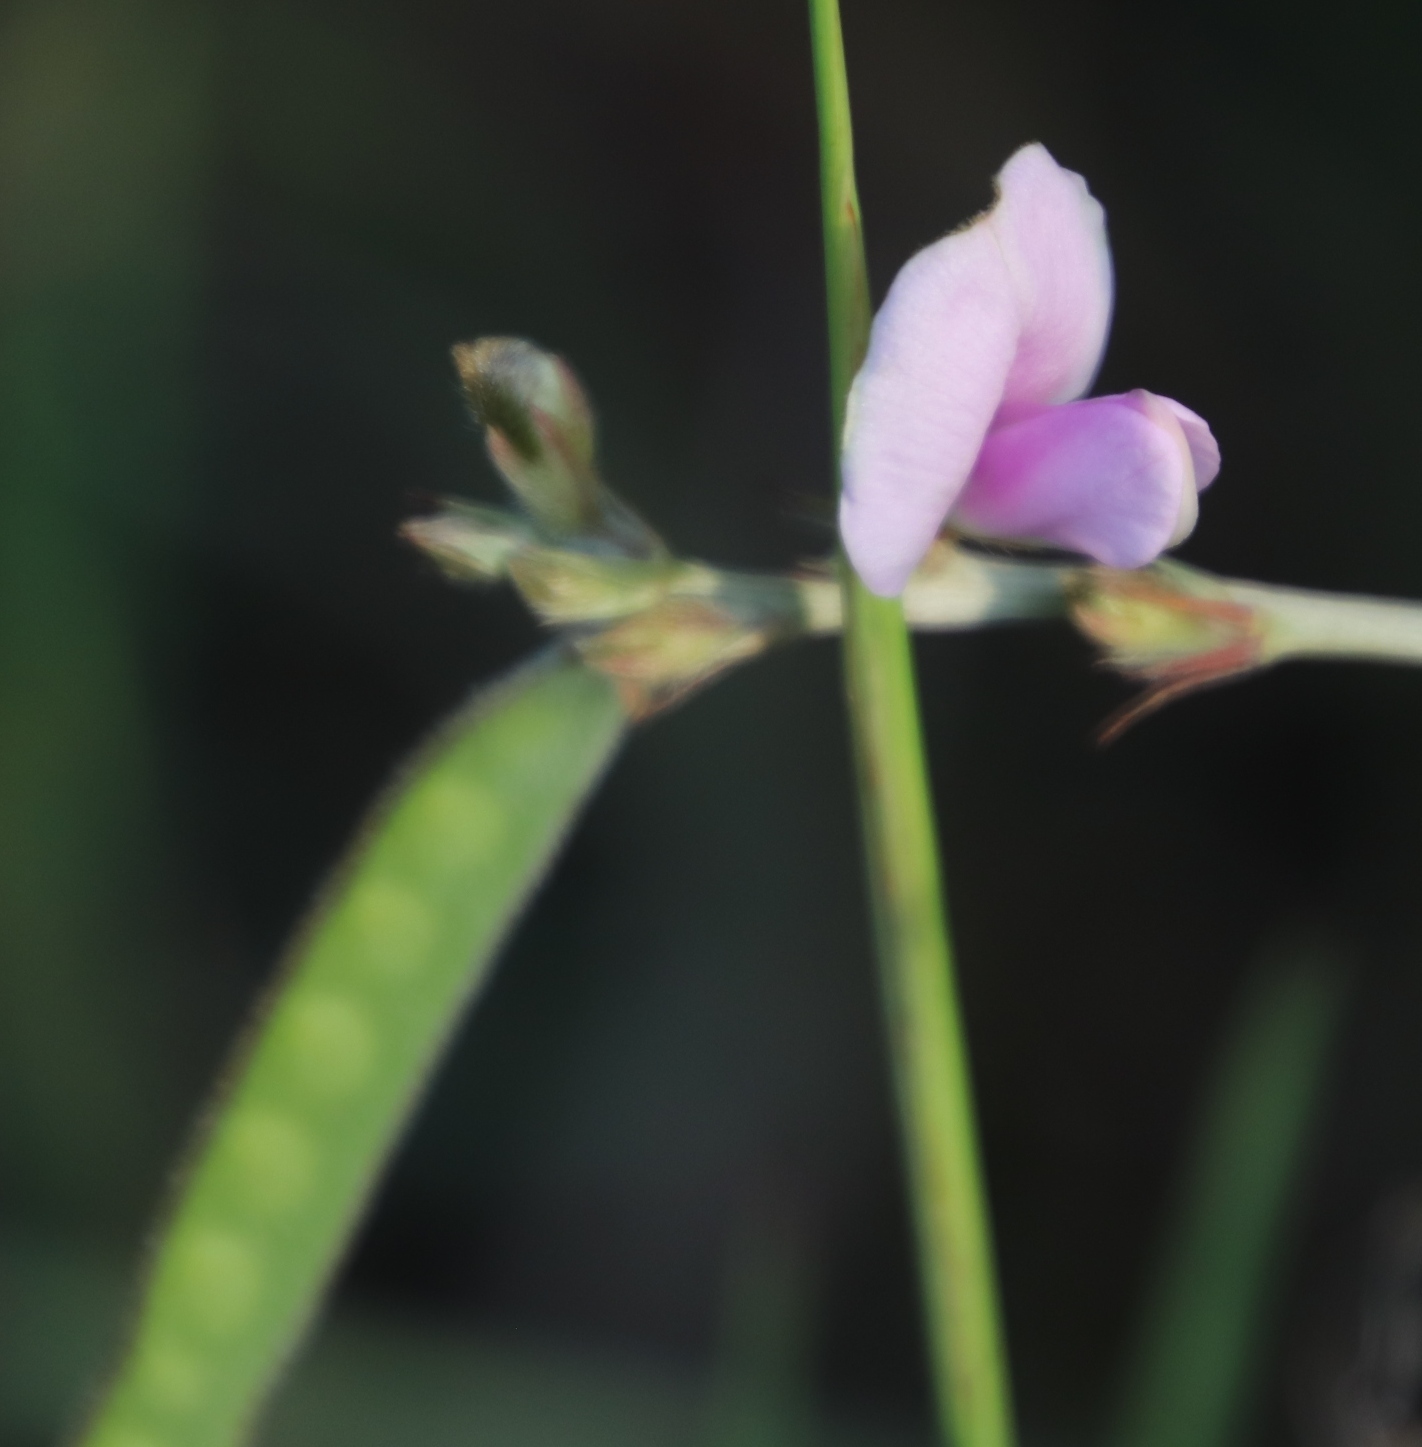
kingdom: Plantae
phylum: Tracheophyta
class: Magnoliopsida
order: Fabales
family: Fabaceae
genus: Tephrosia
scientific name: Tephrosia longipes
